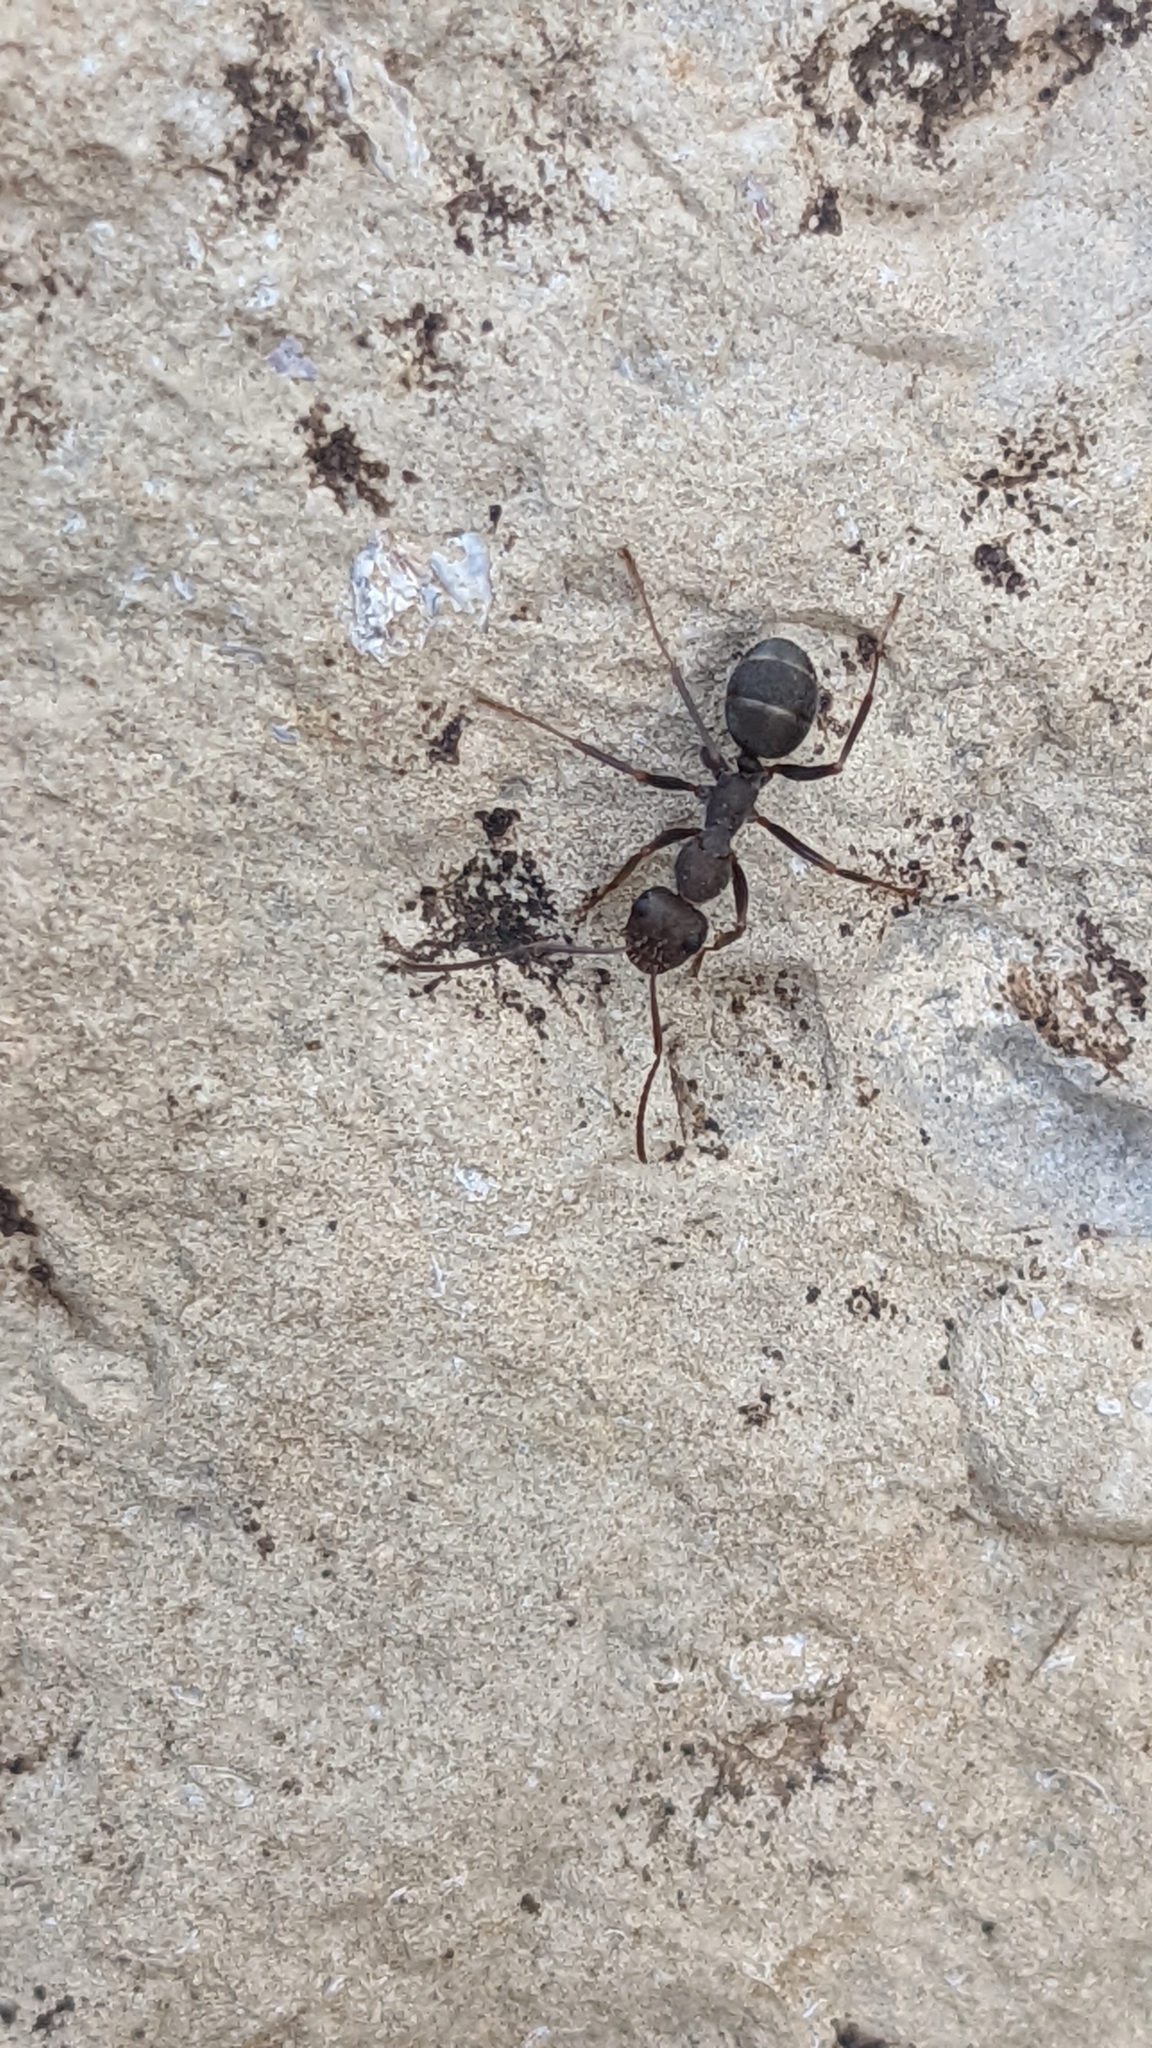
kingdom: Animalia
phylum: Arthropoda
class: Insecta
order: Hymenoptera
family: Formicidae
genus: Formica
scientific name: Formica subrufa
